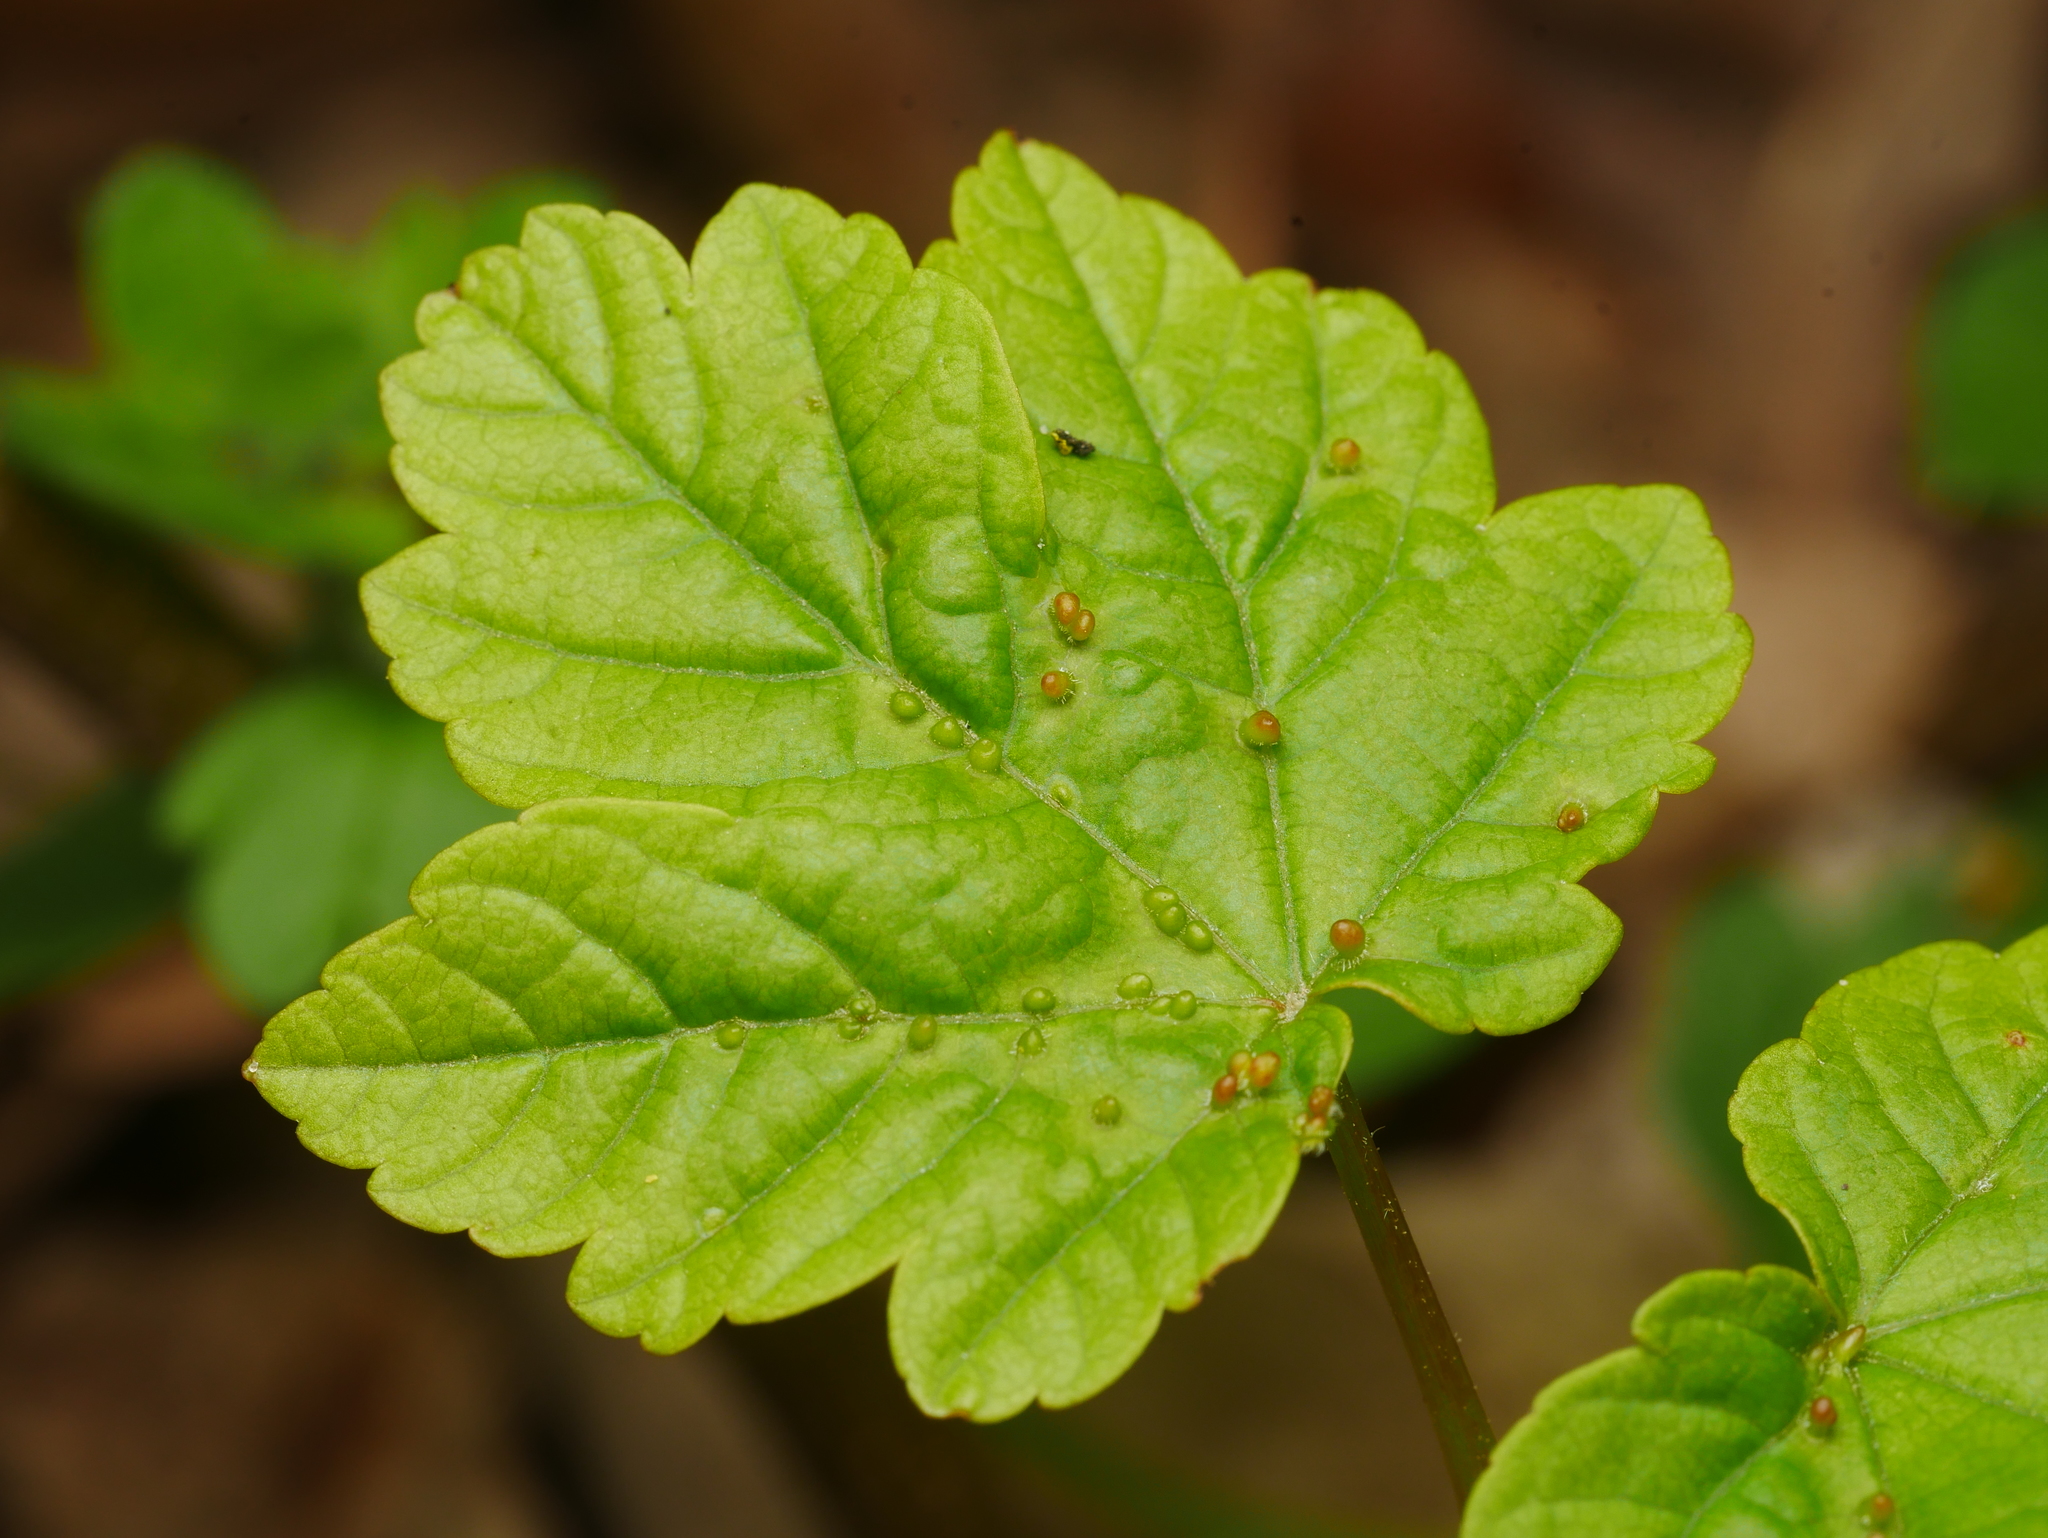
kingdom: Plantae
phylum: Tracheophyta
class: Magnoliopsida
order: Sapindales
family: Sapindaceae
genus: Acer
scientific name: Acer pseudoplatanus
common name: Sycamore
